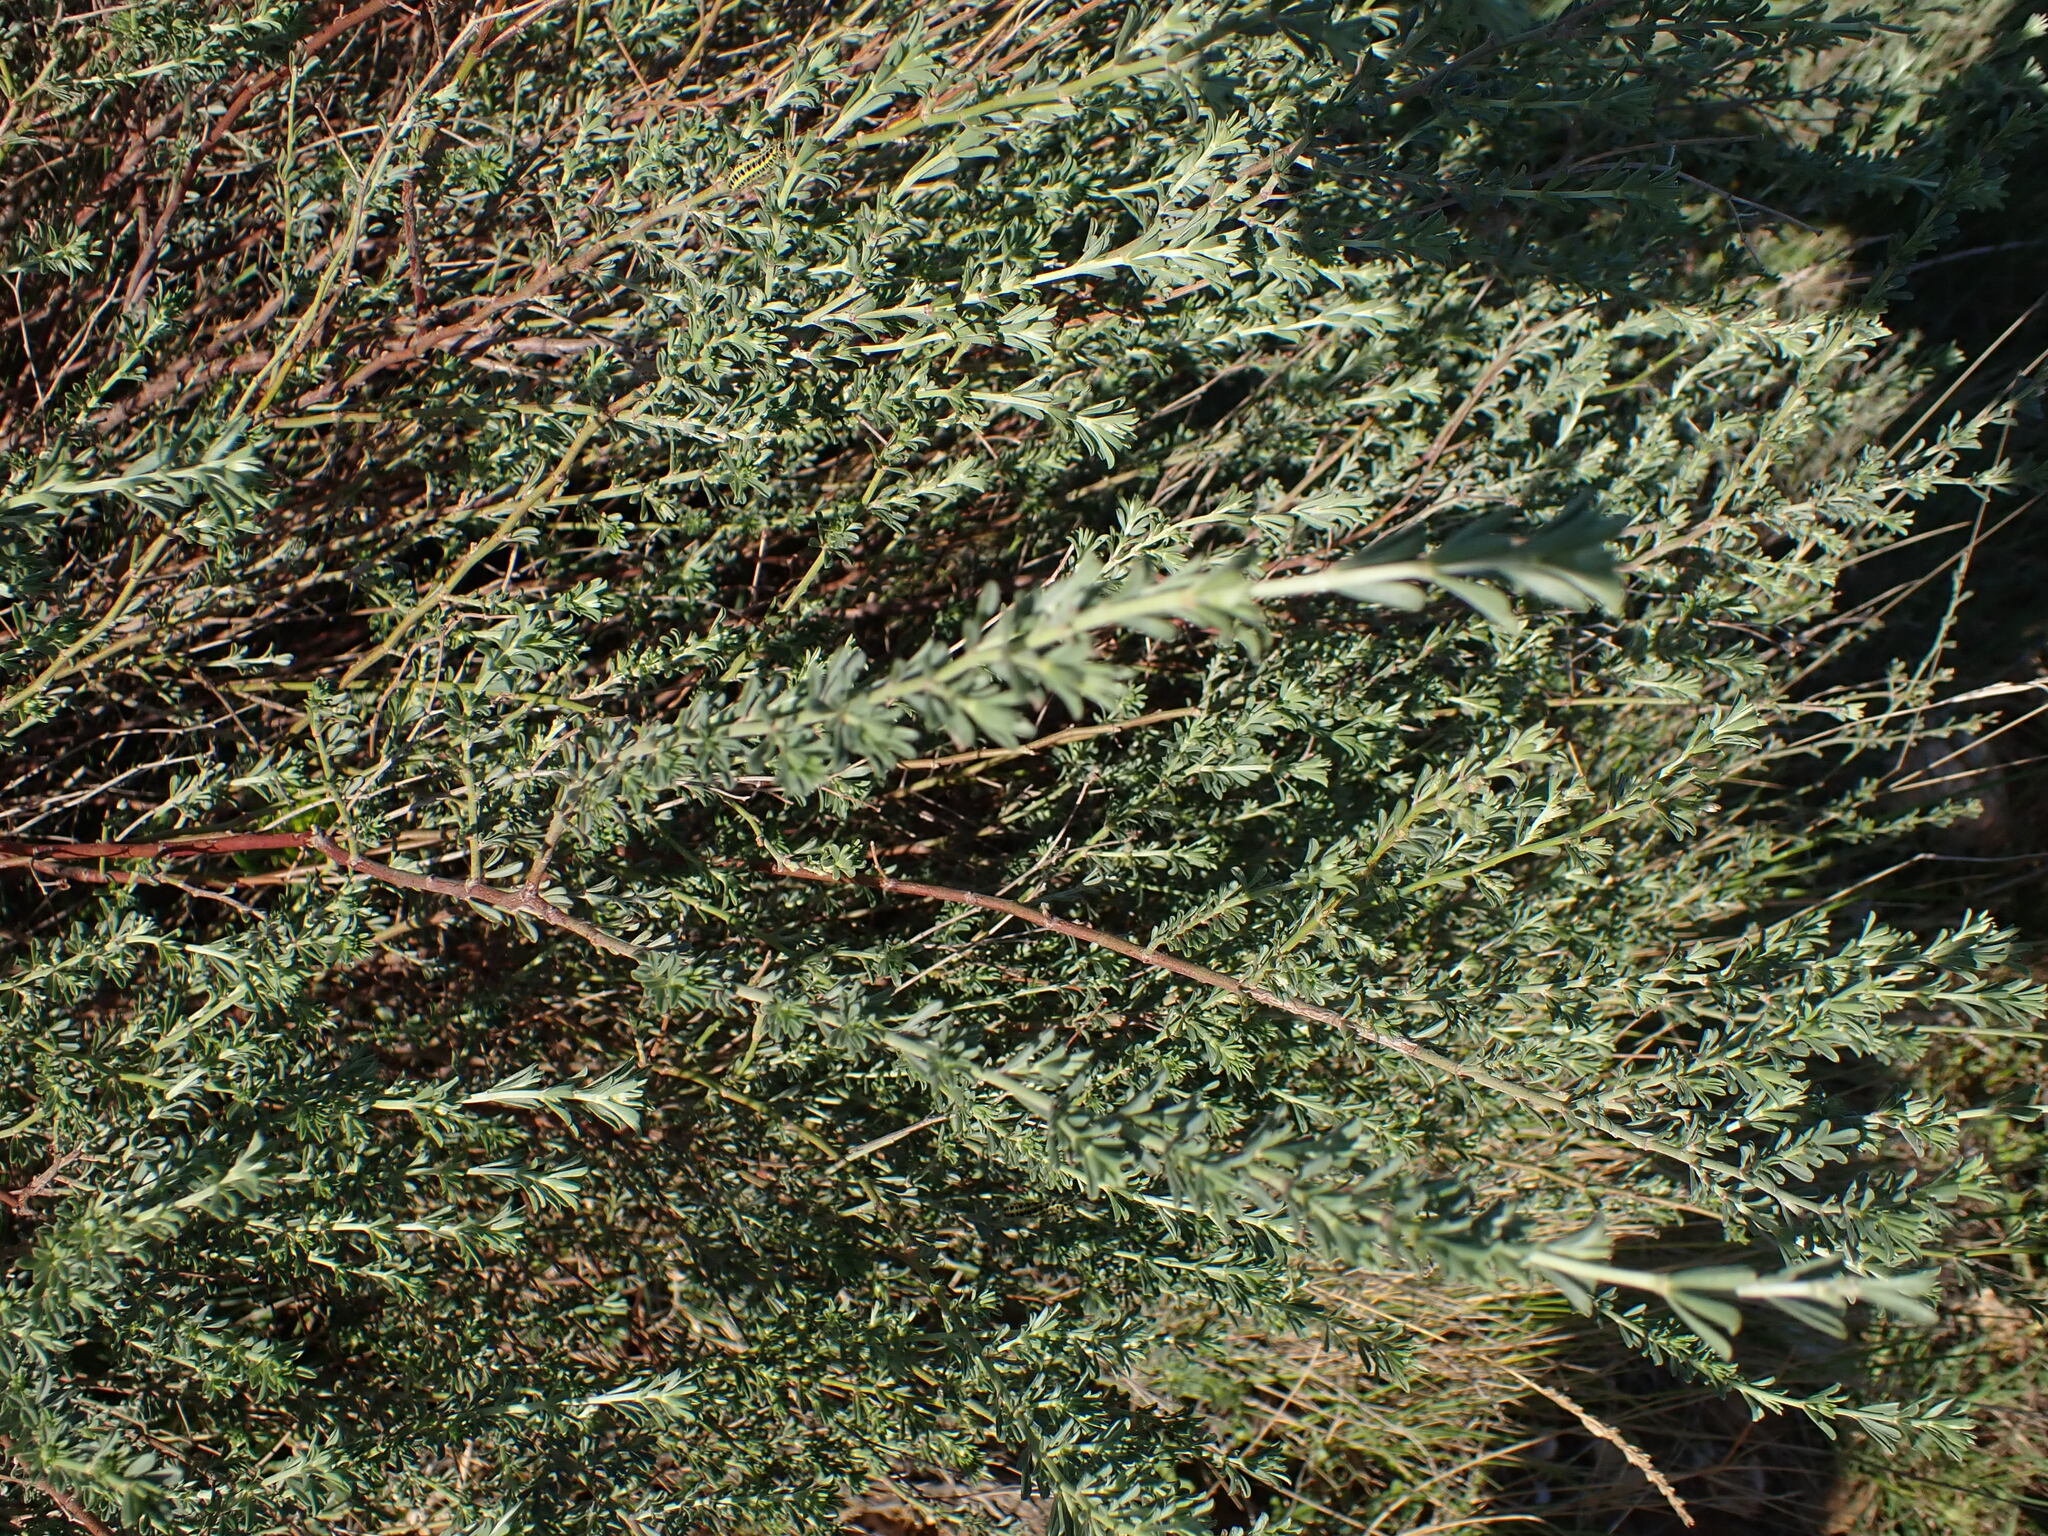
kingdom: Plantae
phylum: Tracheophyta
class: Magnoliopsida
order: Fabales
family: Fabaceae
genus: Lotus
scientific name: Lotus dorycnium
